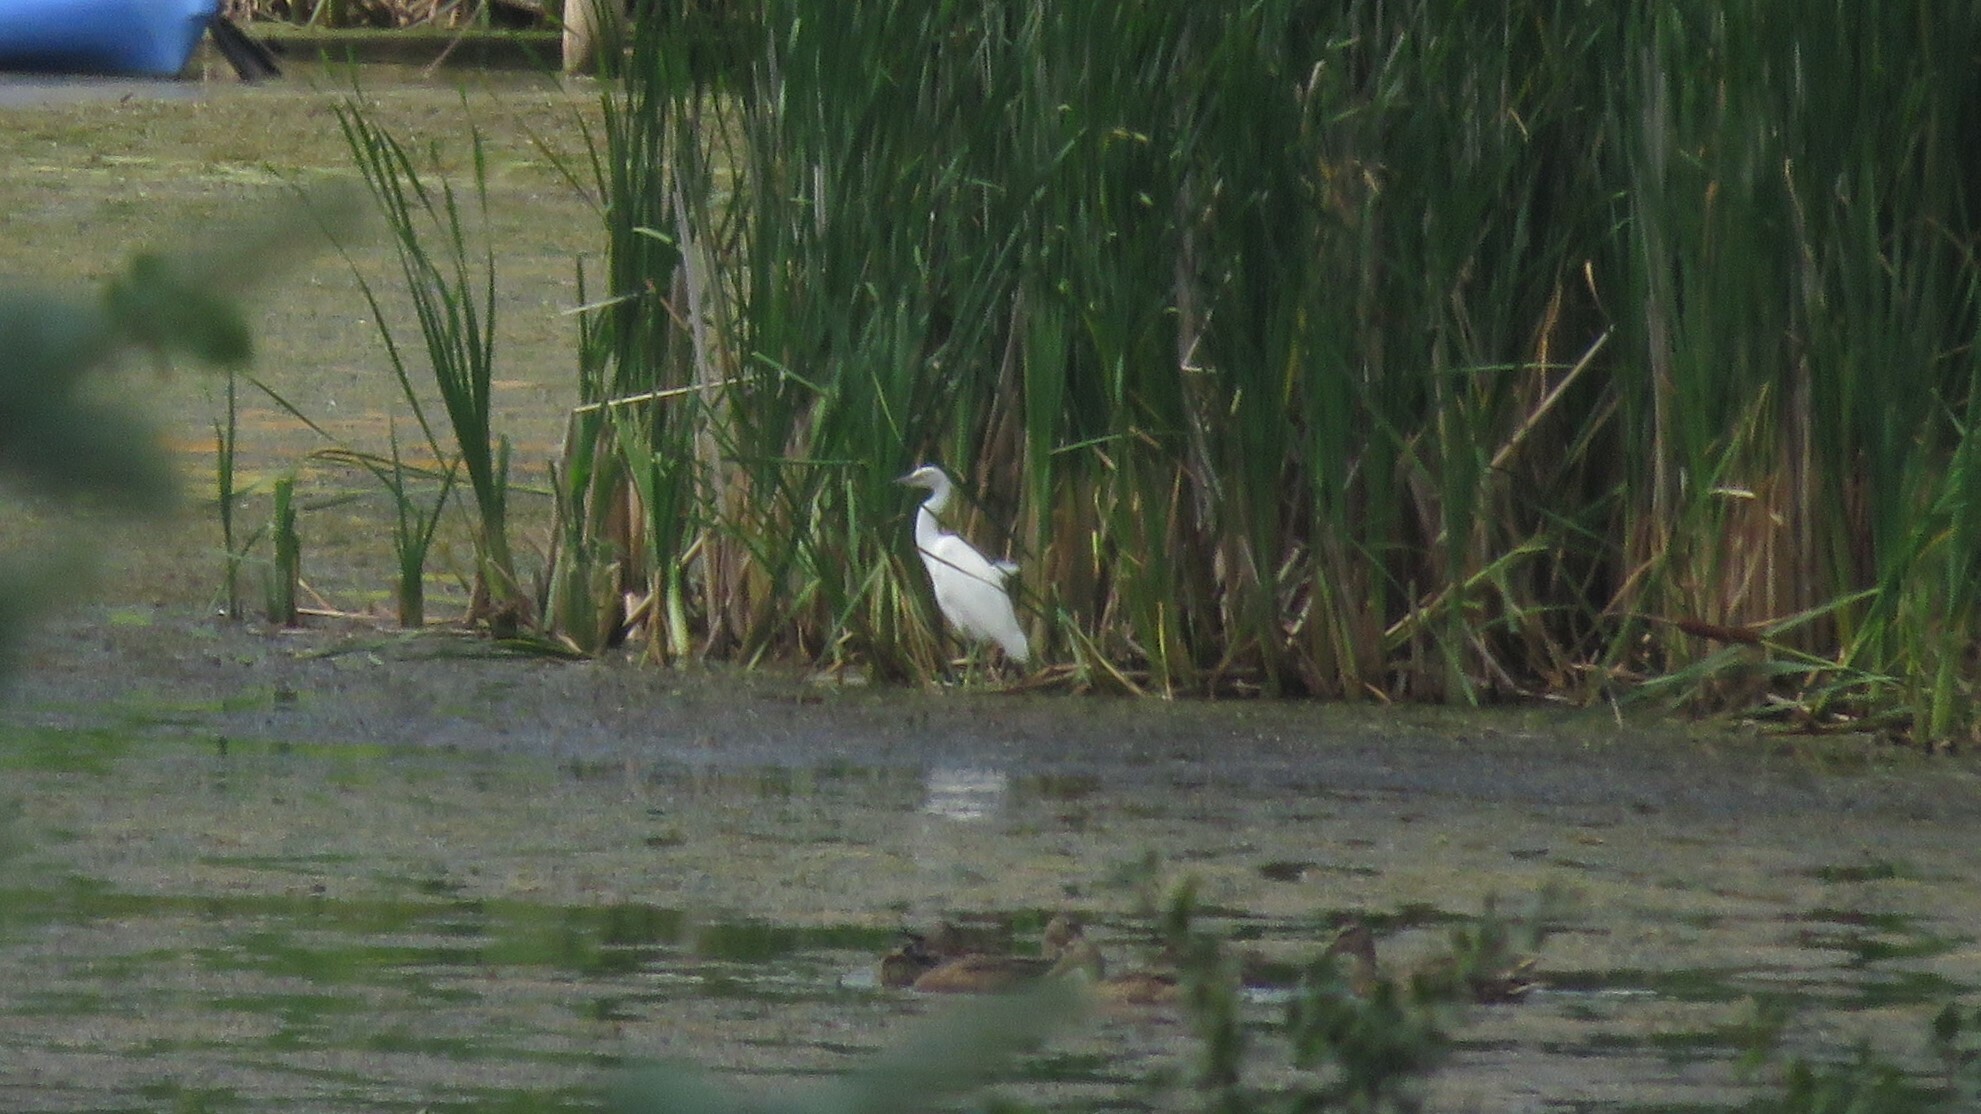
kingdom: Animalia
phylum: Chordata
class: Aves
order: Pelecaniformes
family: Ardeidae
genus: Egretta
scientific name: Egretta caerulea
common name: Little blue heron
